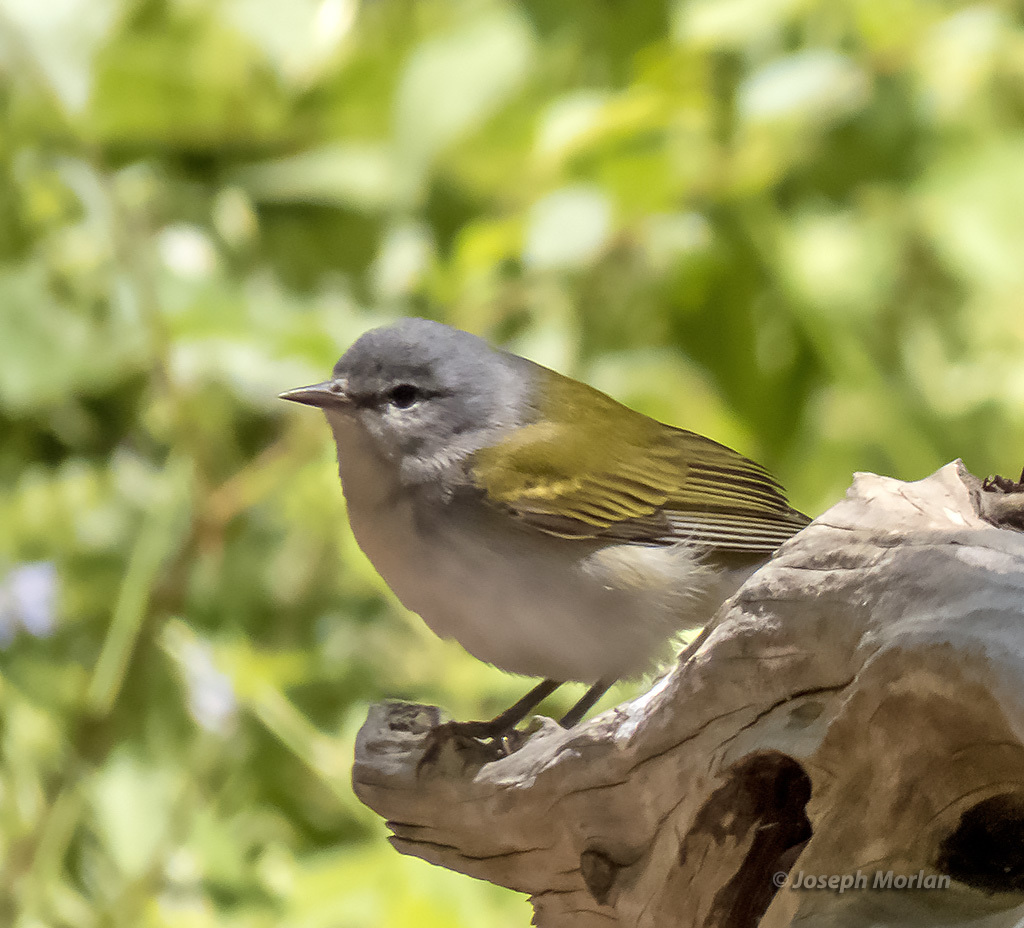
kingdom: Animalia
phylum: Chordata
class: Aves
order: Passeriformes
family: Parulidae
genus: Leiothlypis
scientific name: Leiothlypis peregrina
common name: Tennessee warbler
